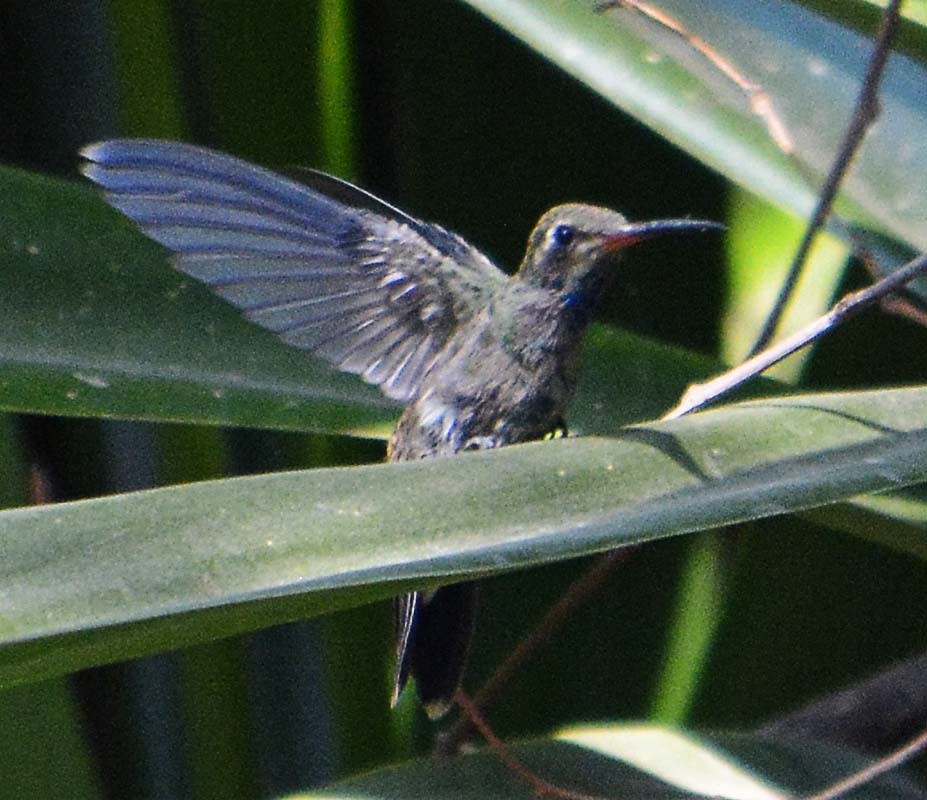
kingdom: Animalia
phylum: Chordata
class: Aves
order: Apodiformes
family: Trochilidae
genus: Cynanthus
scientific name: Cynanthus latirostris
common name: Broad-billed hummingbird
